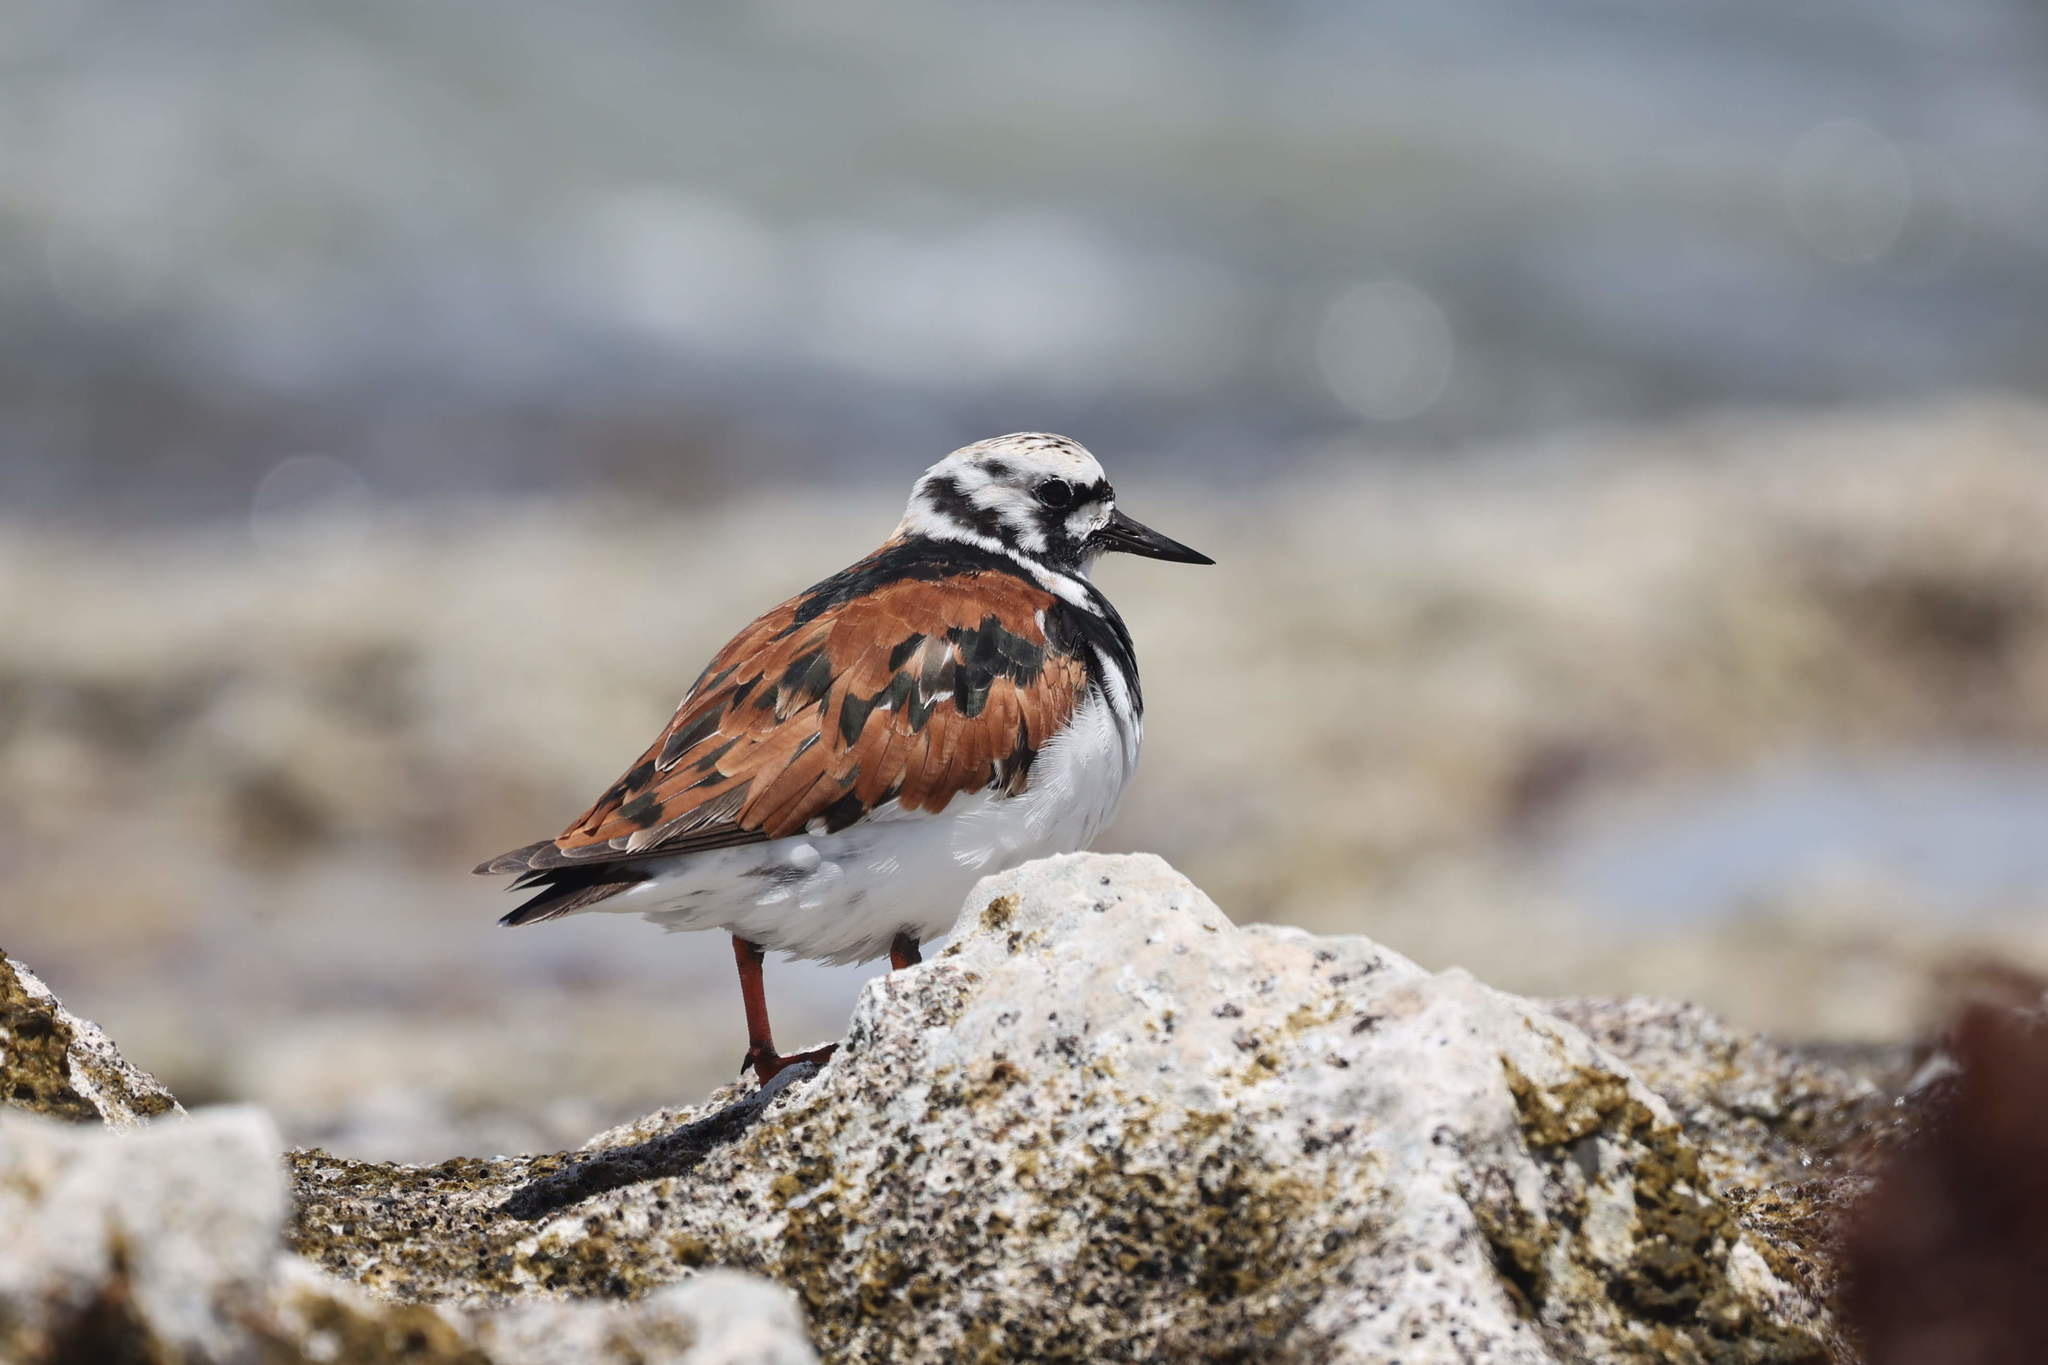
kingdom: Animalia
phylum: Chordata
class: Aves
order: Charadriiformes
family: Scolopacidae
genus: Arenaria
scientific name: Arenaria interpres
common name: Ruddy turnstone
